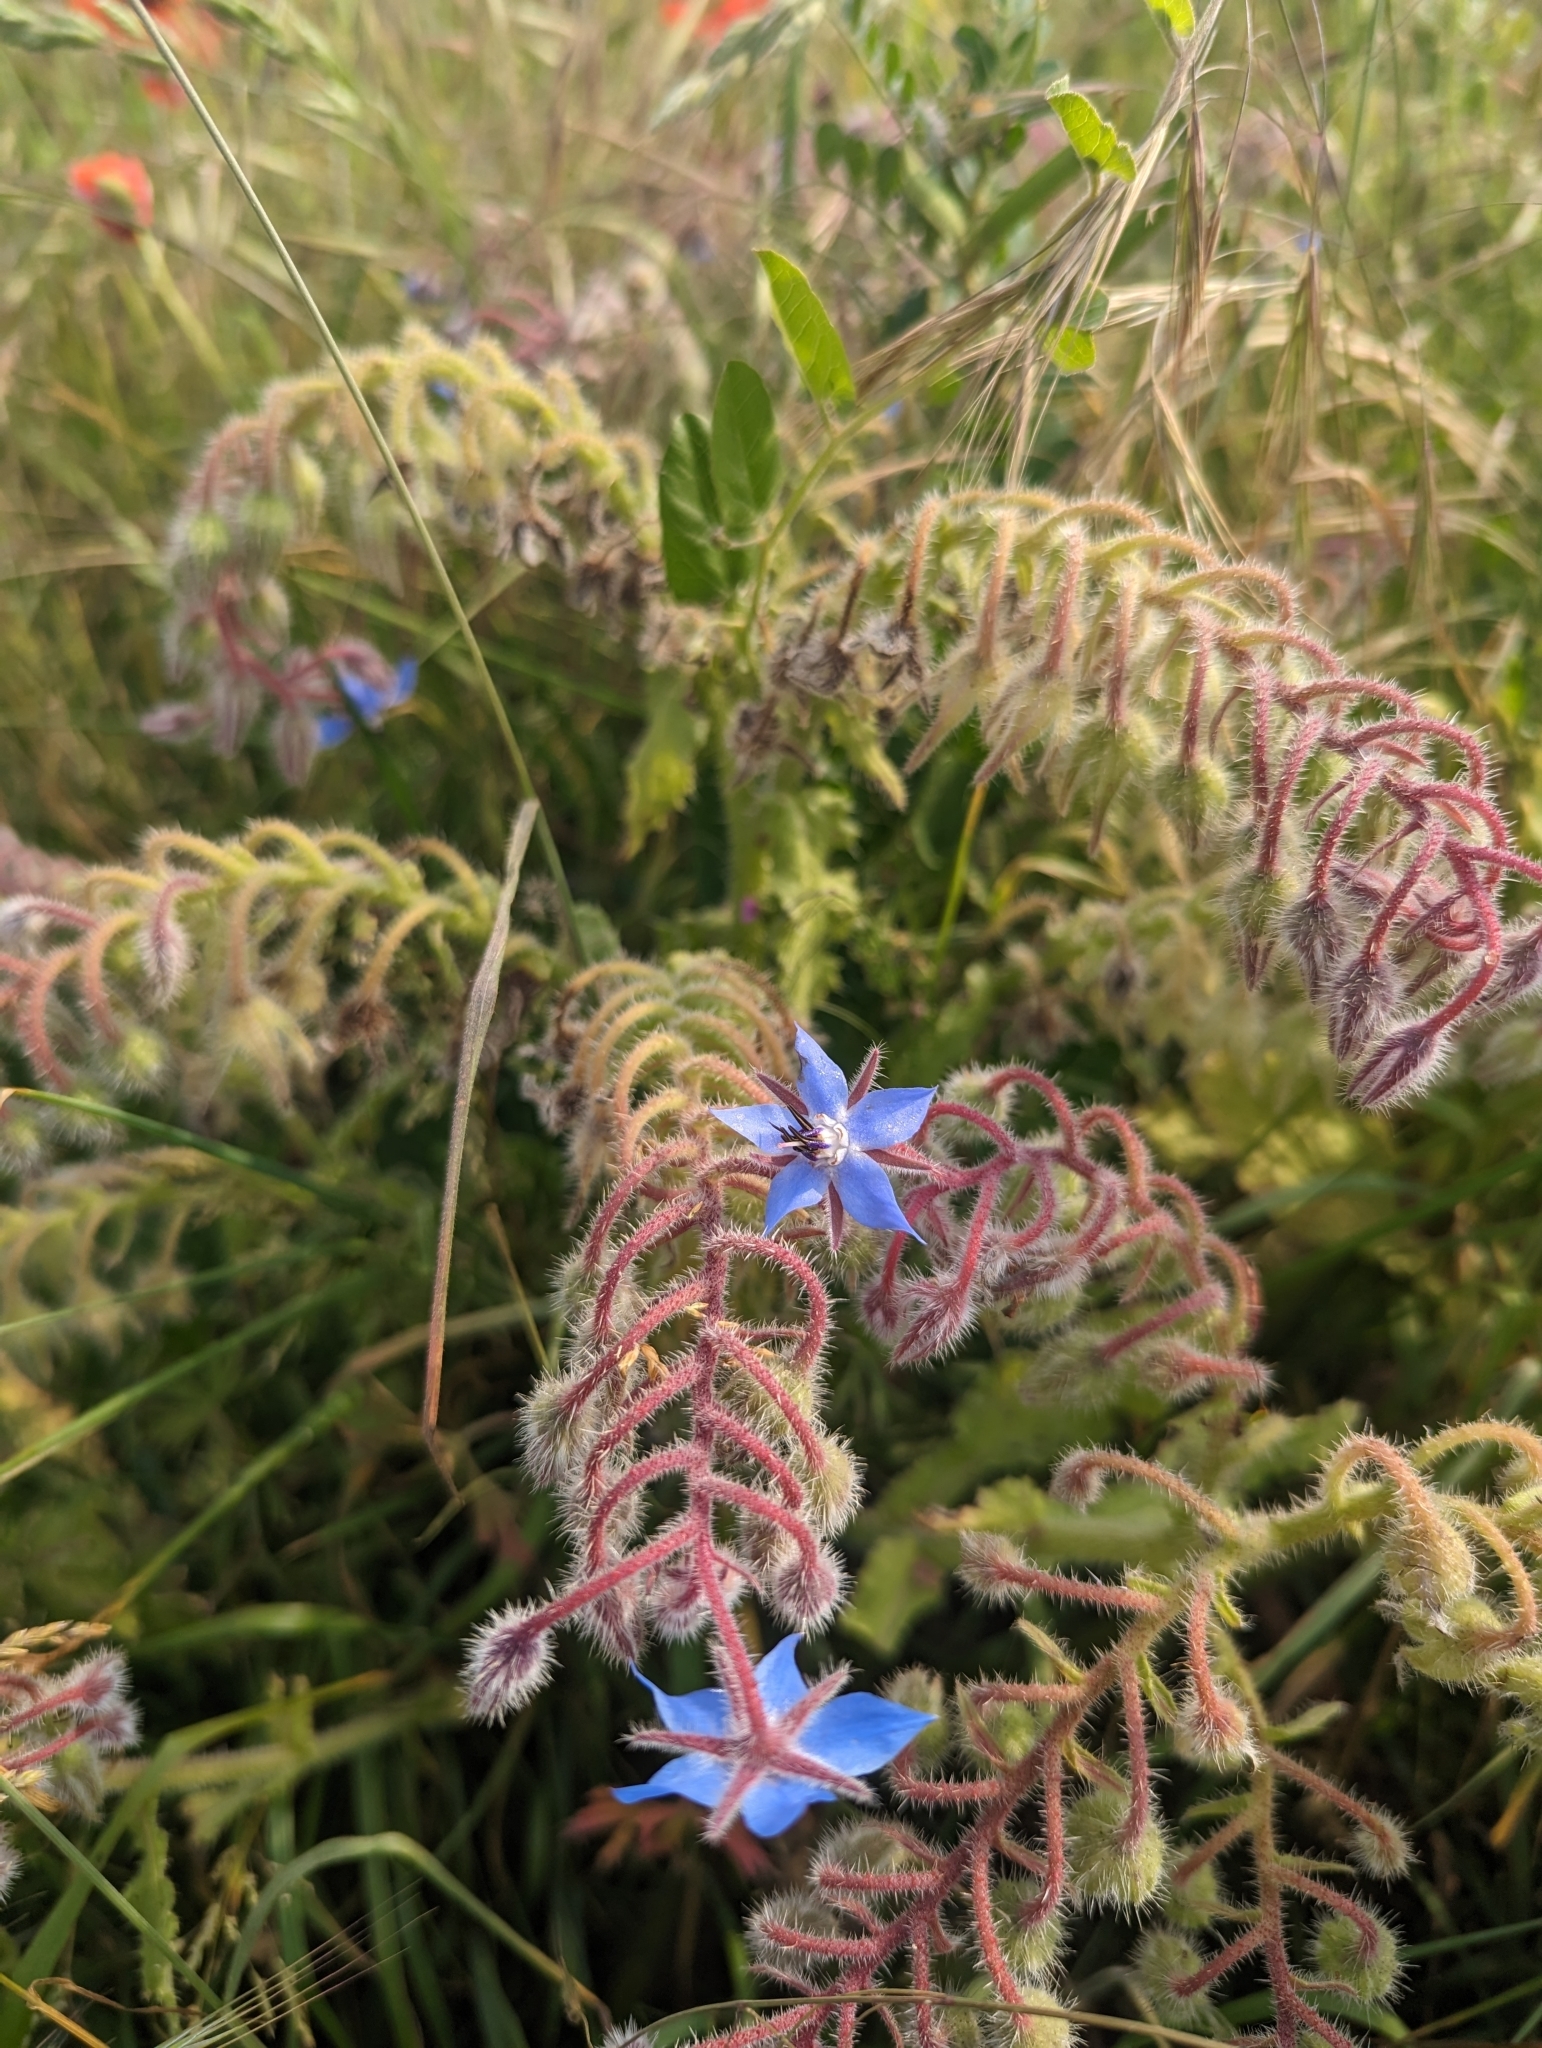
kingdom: Plantae
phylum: Tracheophyta
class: Magnoliopsida
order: Boraginales
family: Boraginaceae
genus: Borago
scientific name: Borago officinalis
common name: Borage
